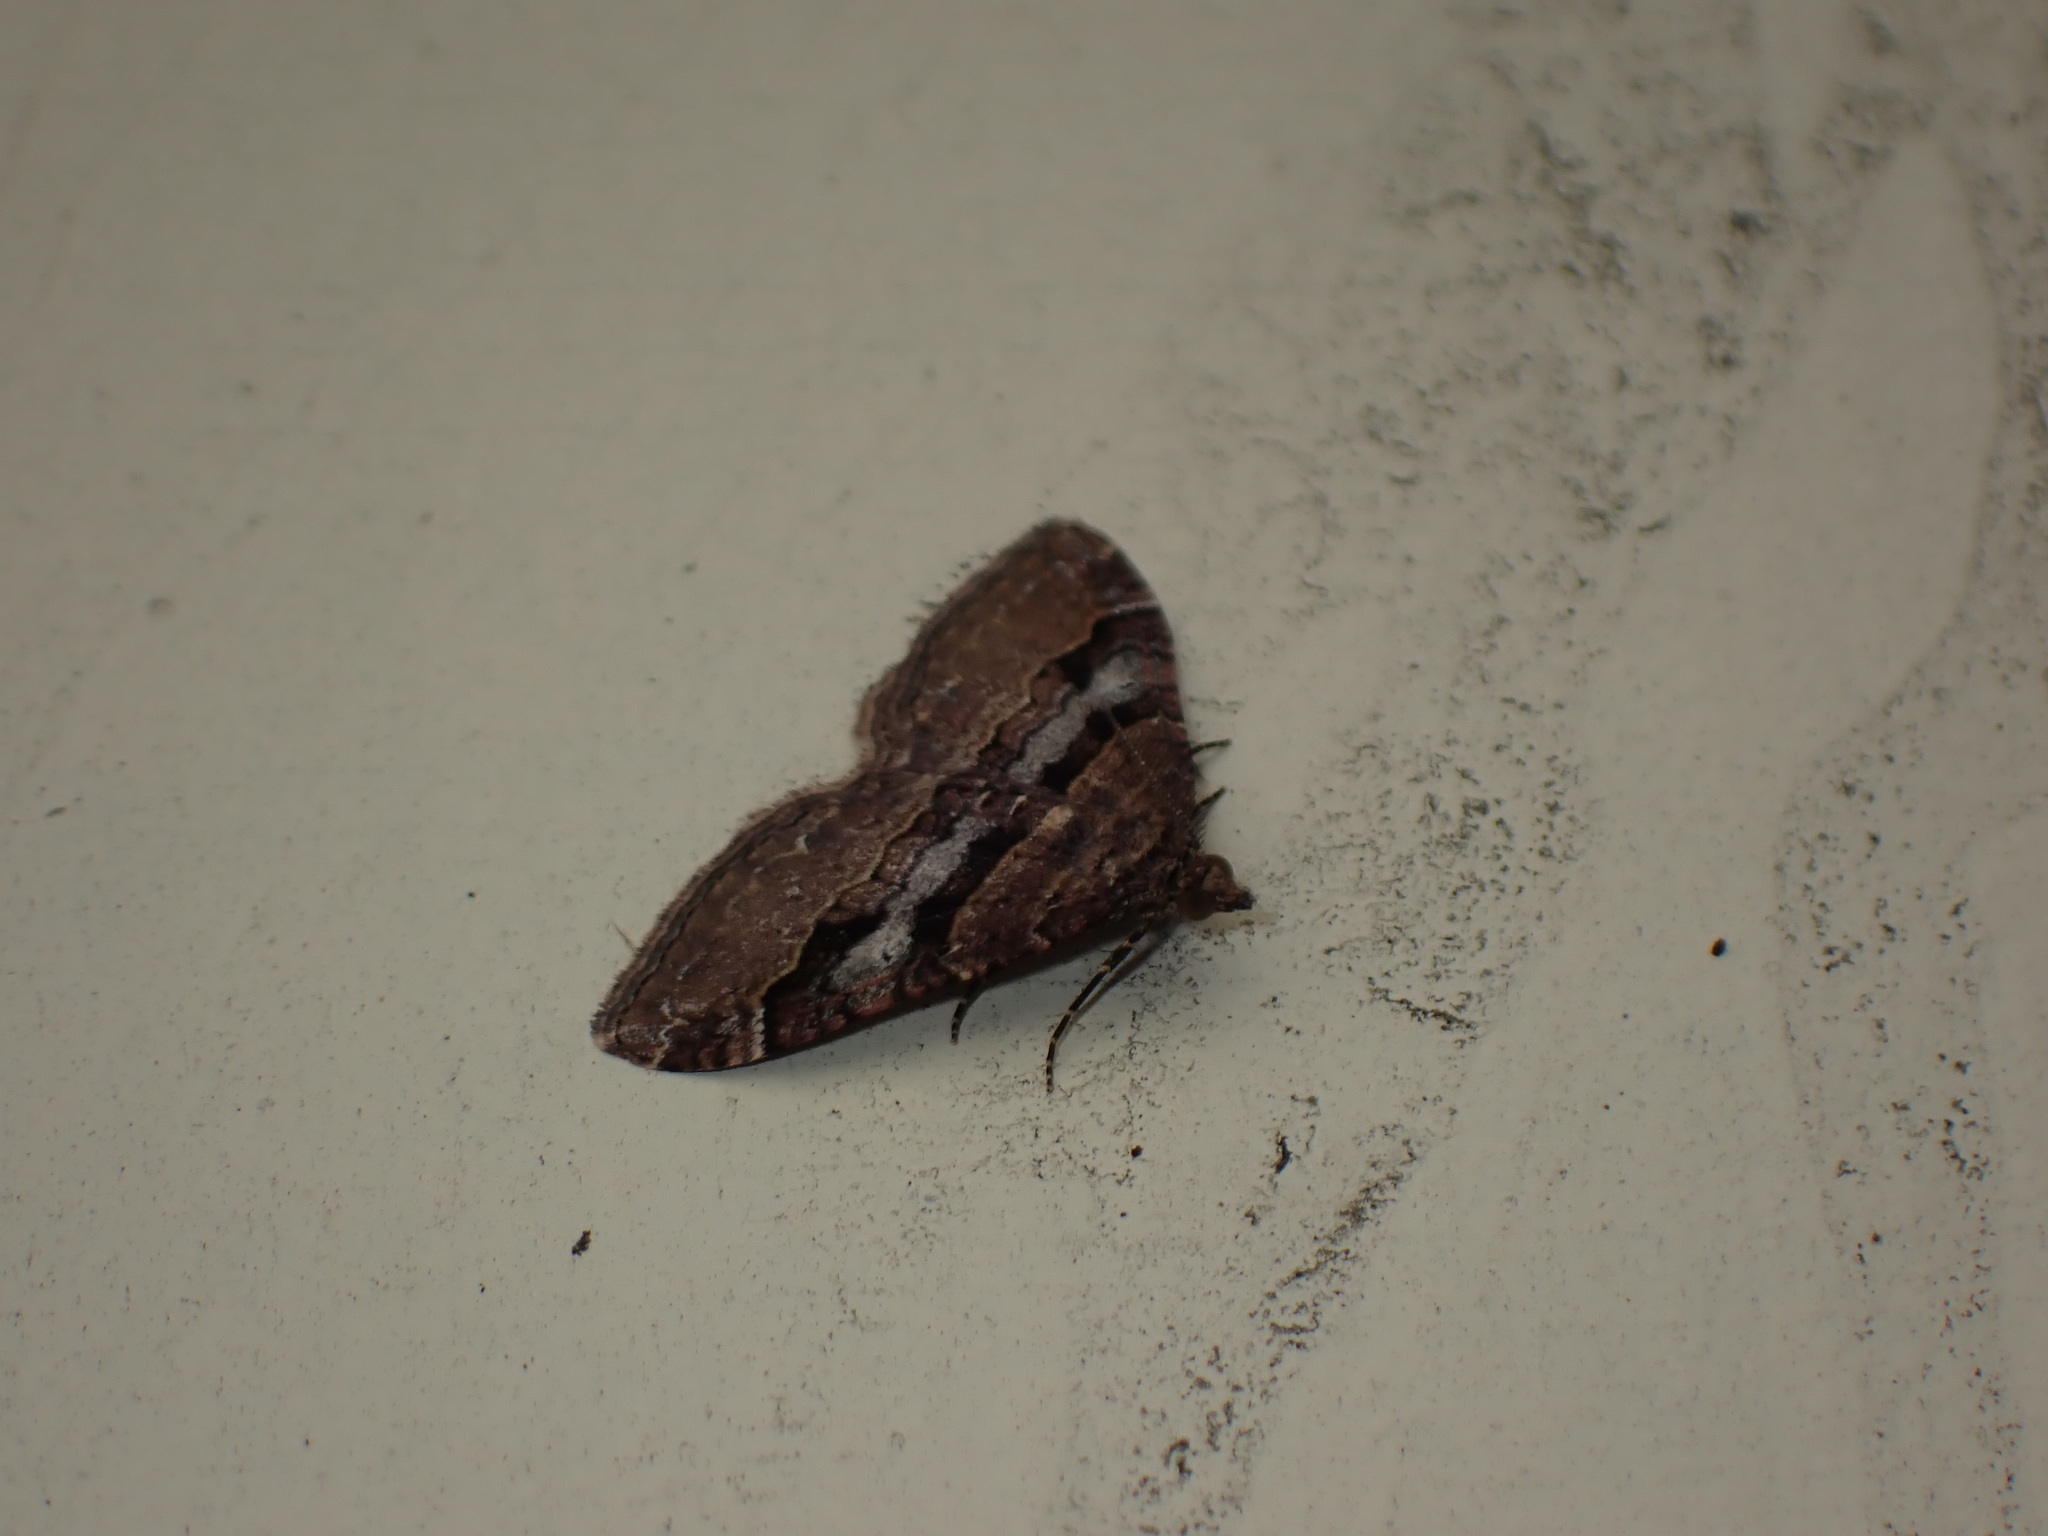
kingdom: Animalia
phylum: Arthropoda
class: Insecta
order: Lepidoptera
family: Geometridae
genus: Epyaxa
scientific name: Epyaxa lucidata
